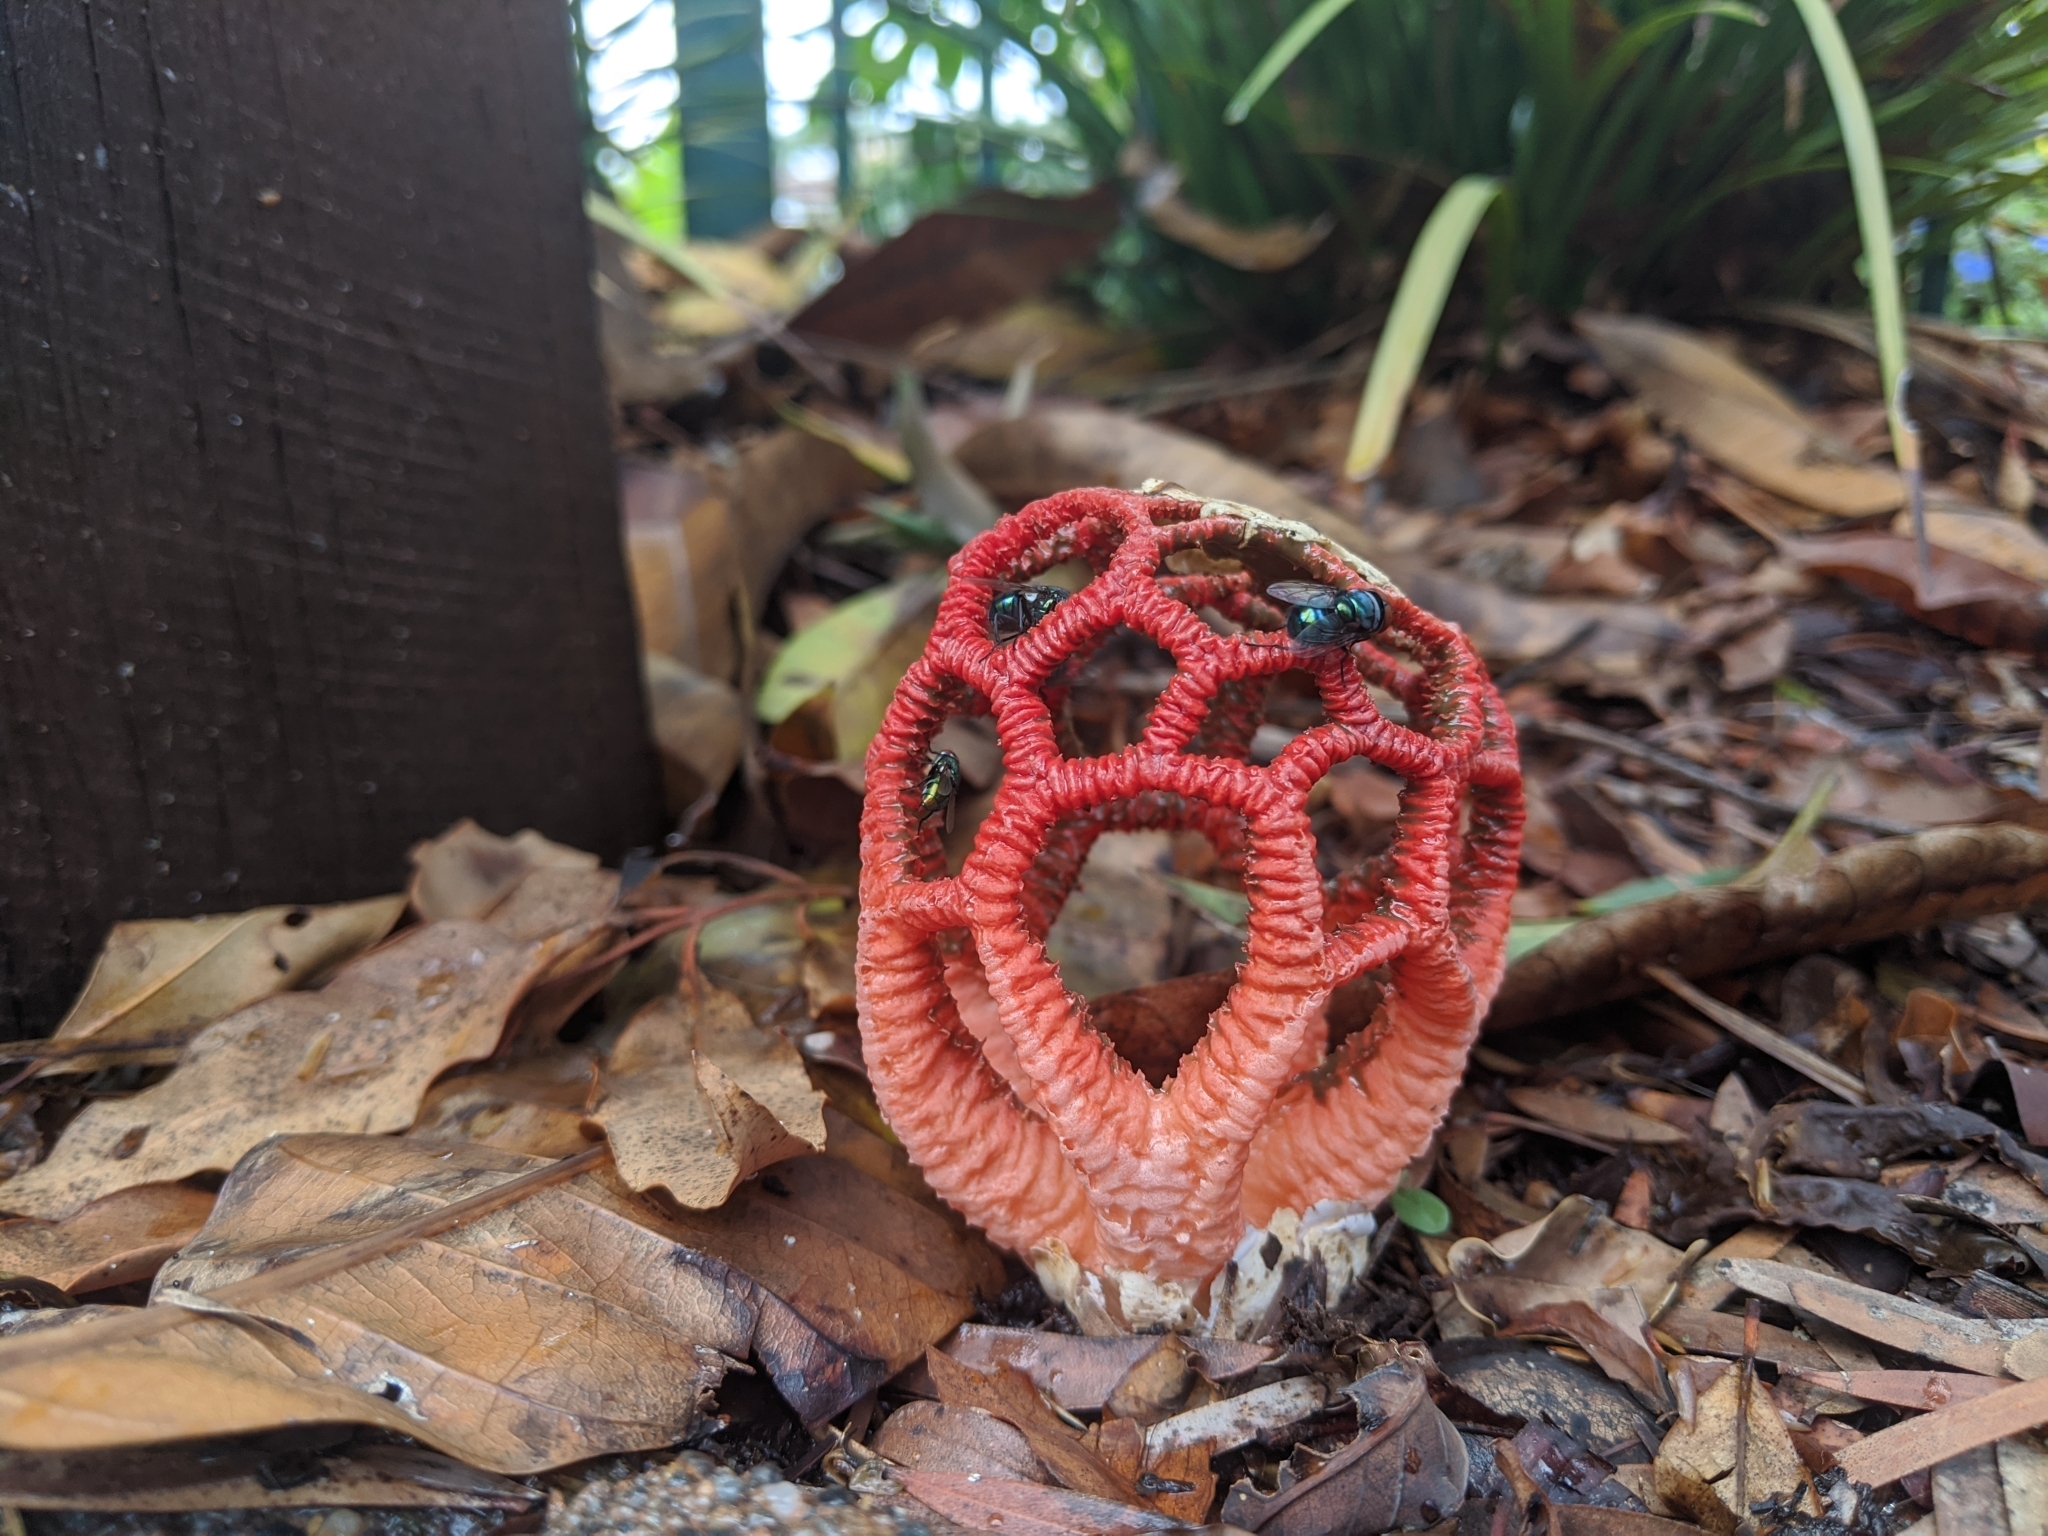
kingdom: Fungi
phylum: Basidiomycota
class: Agaricomycetes
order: Phallales
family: Phallaceae
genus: Colus
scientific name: Colus pusillus
